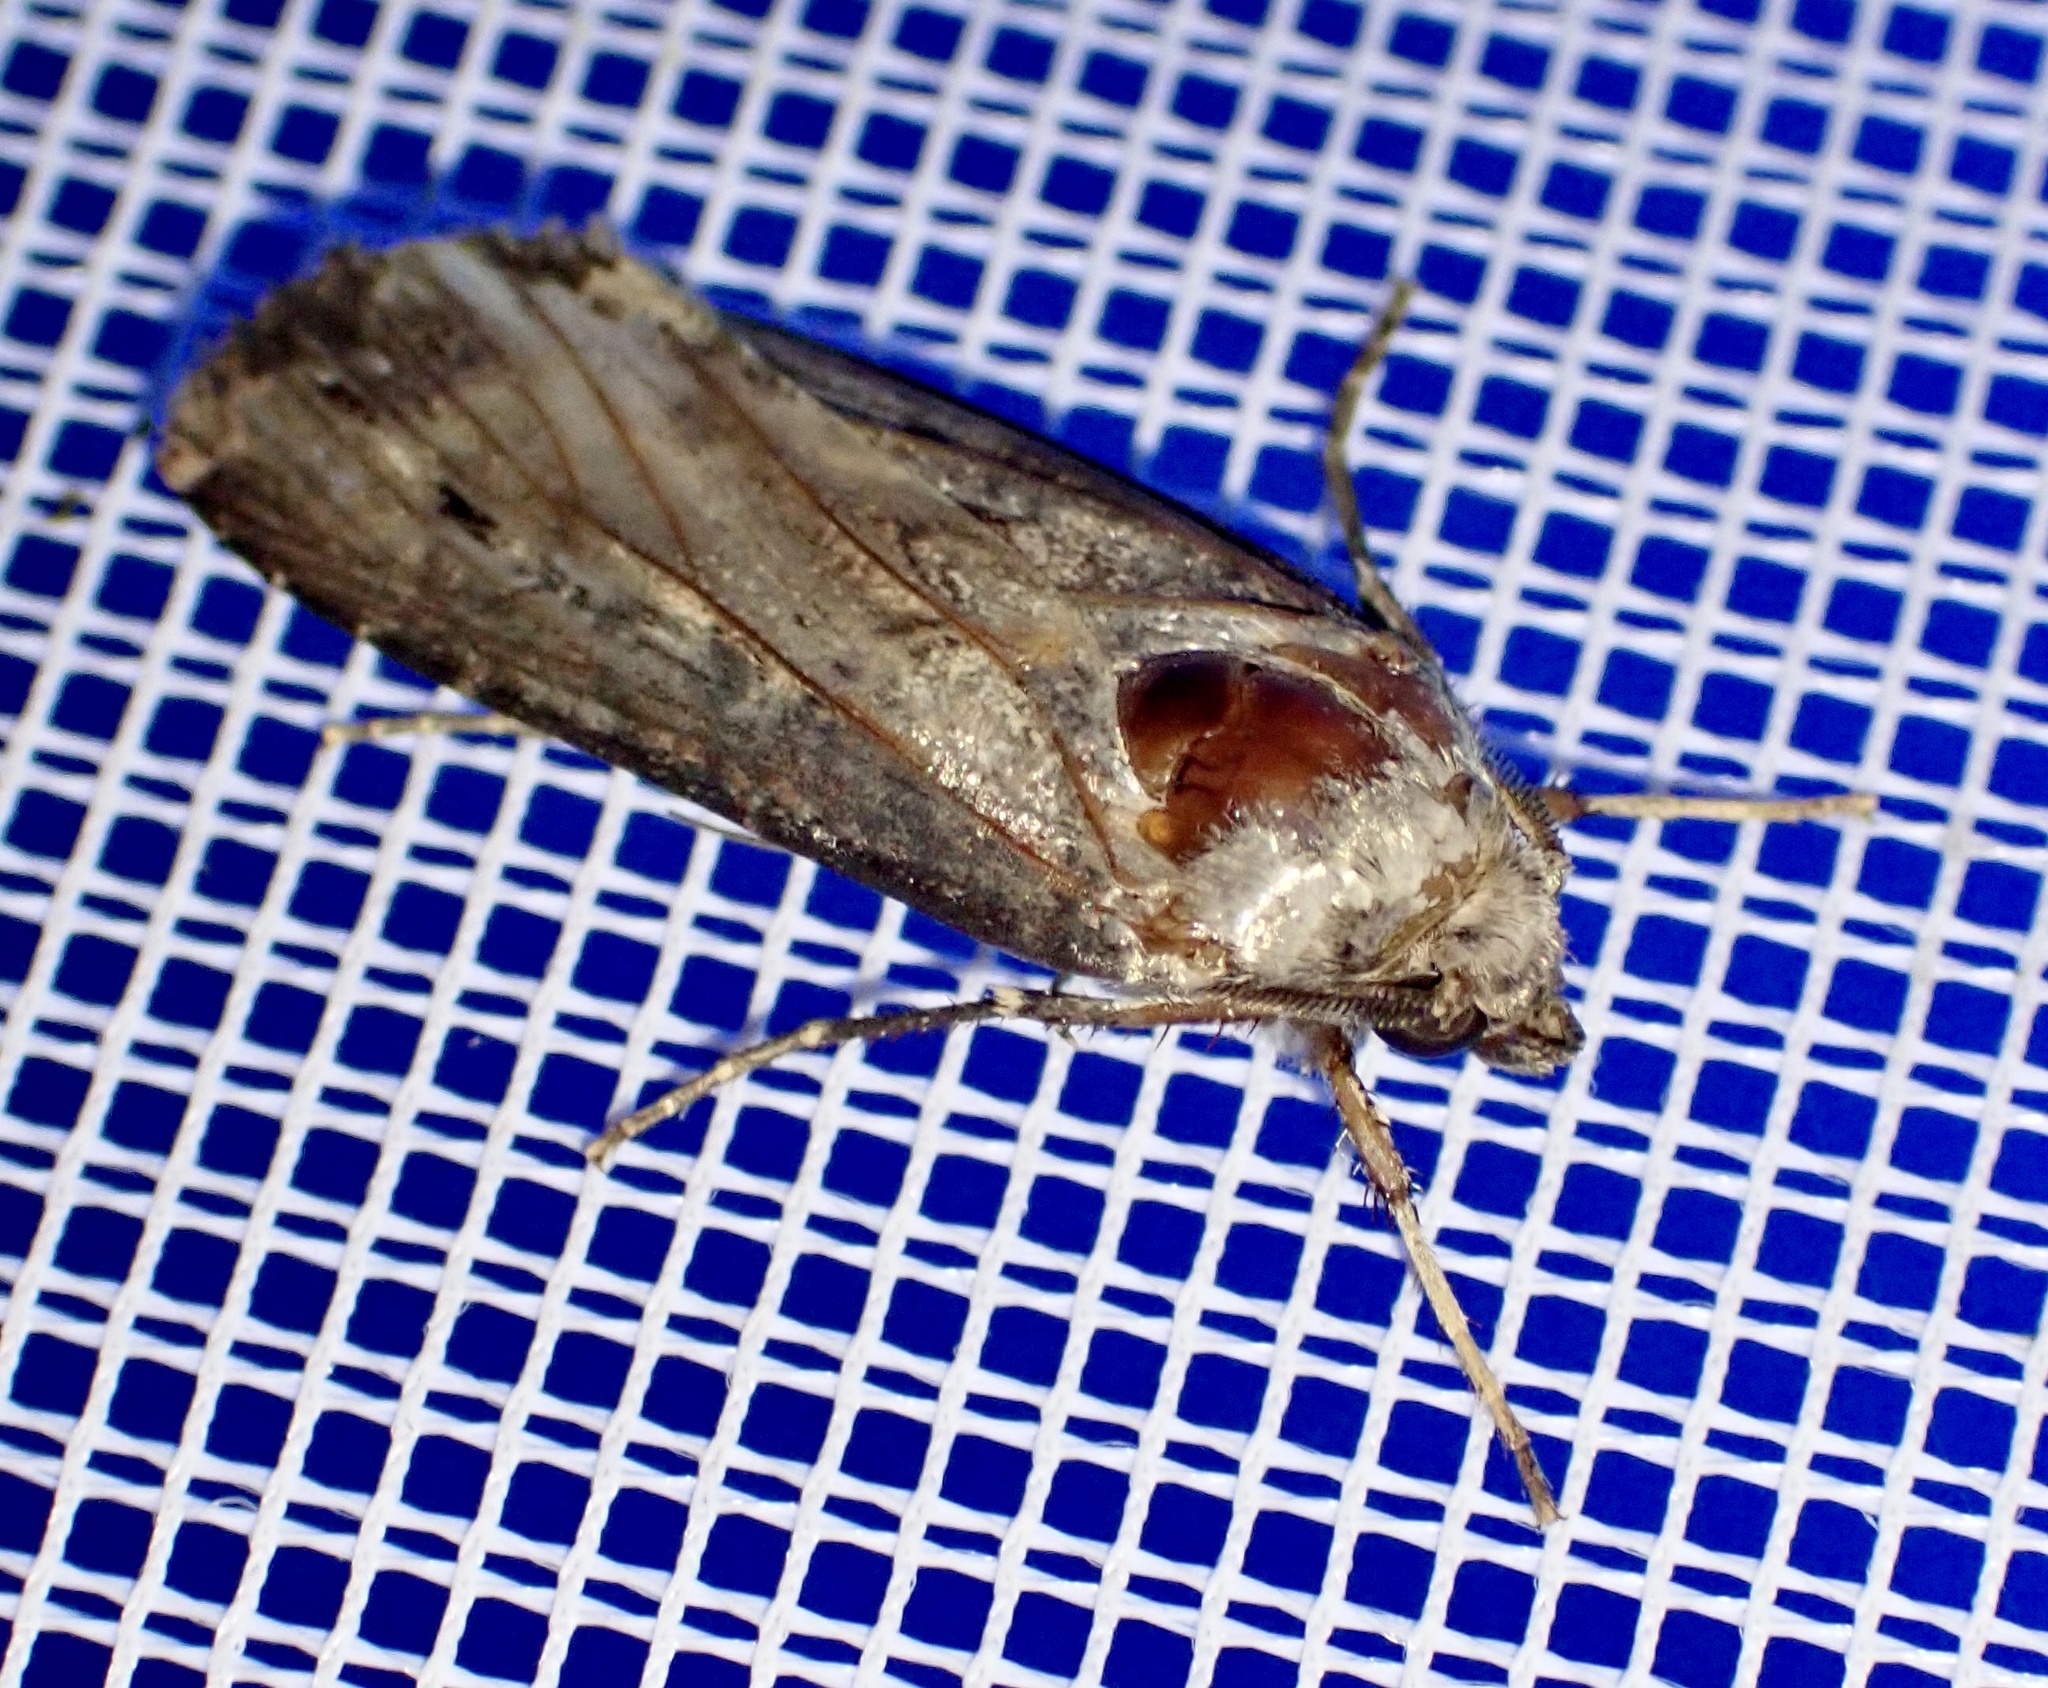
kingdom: Animalia
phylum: Arthropoda
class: Insecta
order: Lepidoptera
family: Noctuidae
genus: Agrotis
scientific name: Agrotis ipsilon
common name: Dark sword-grass
